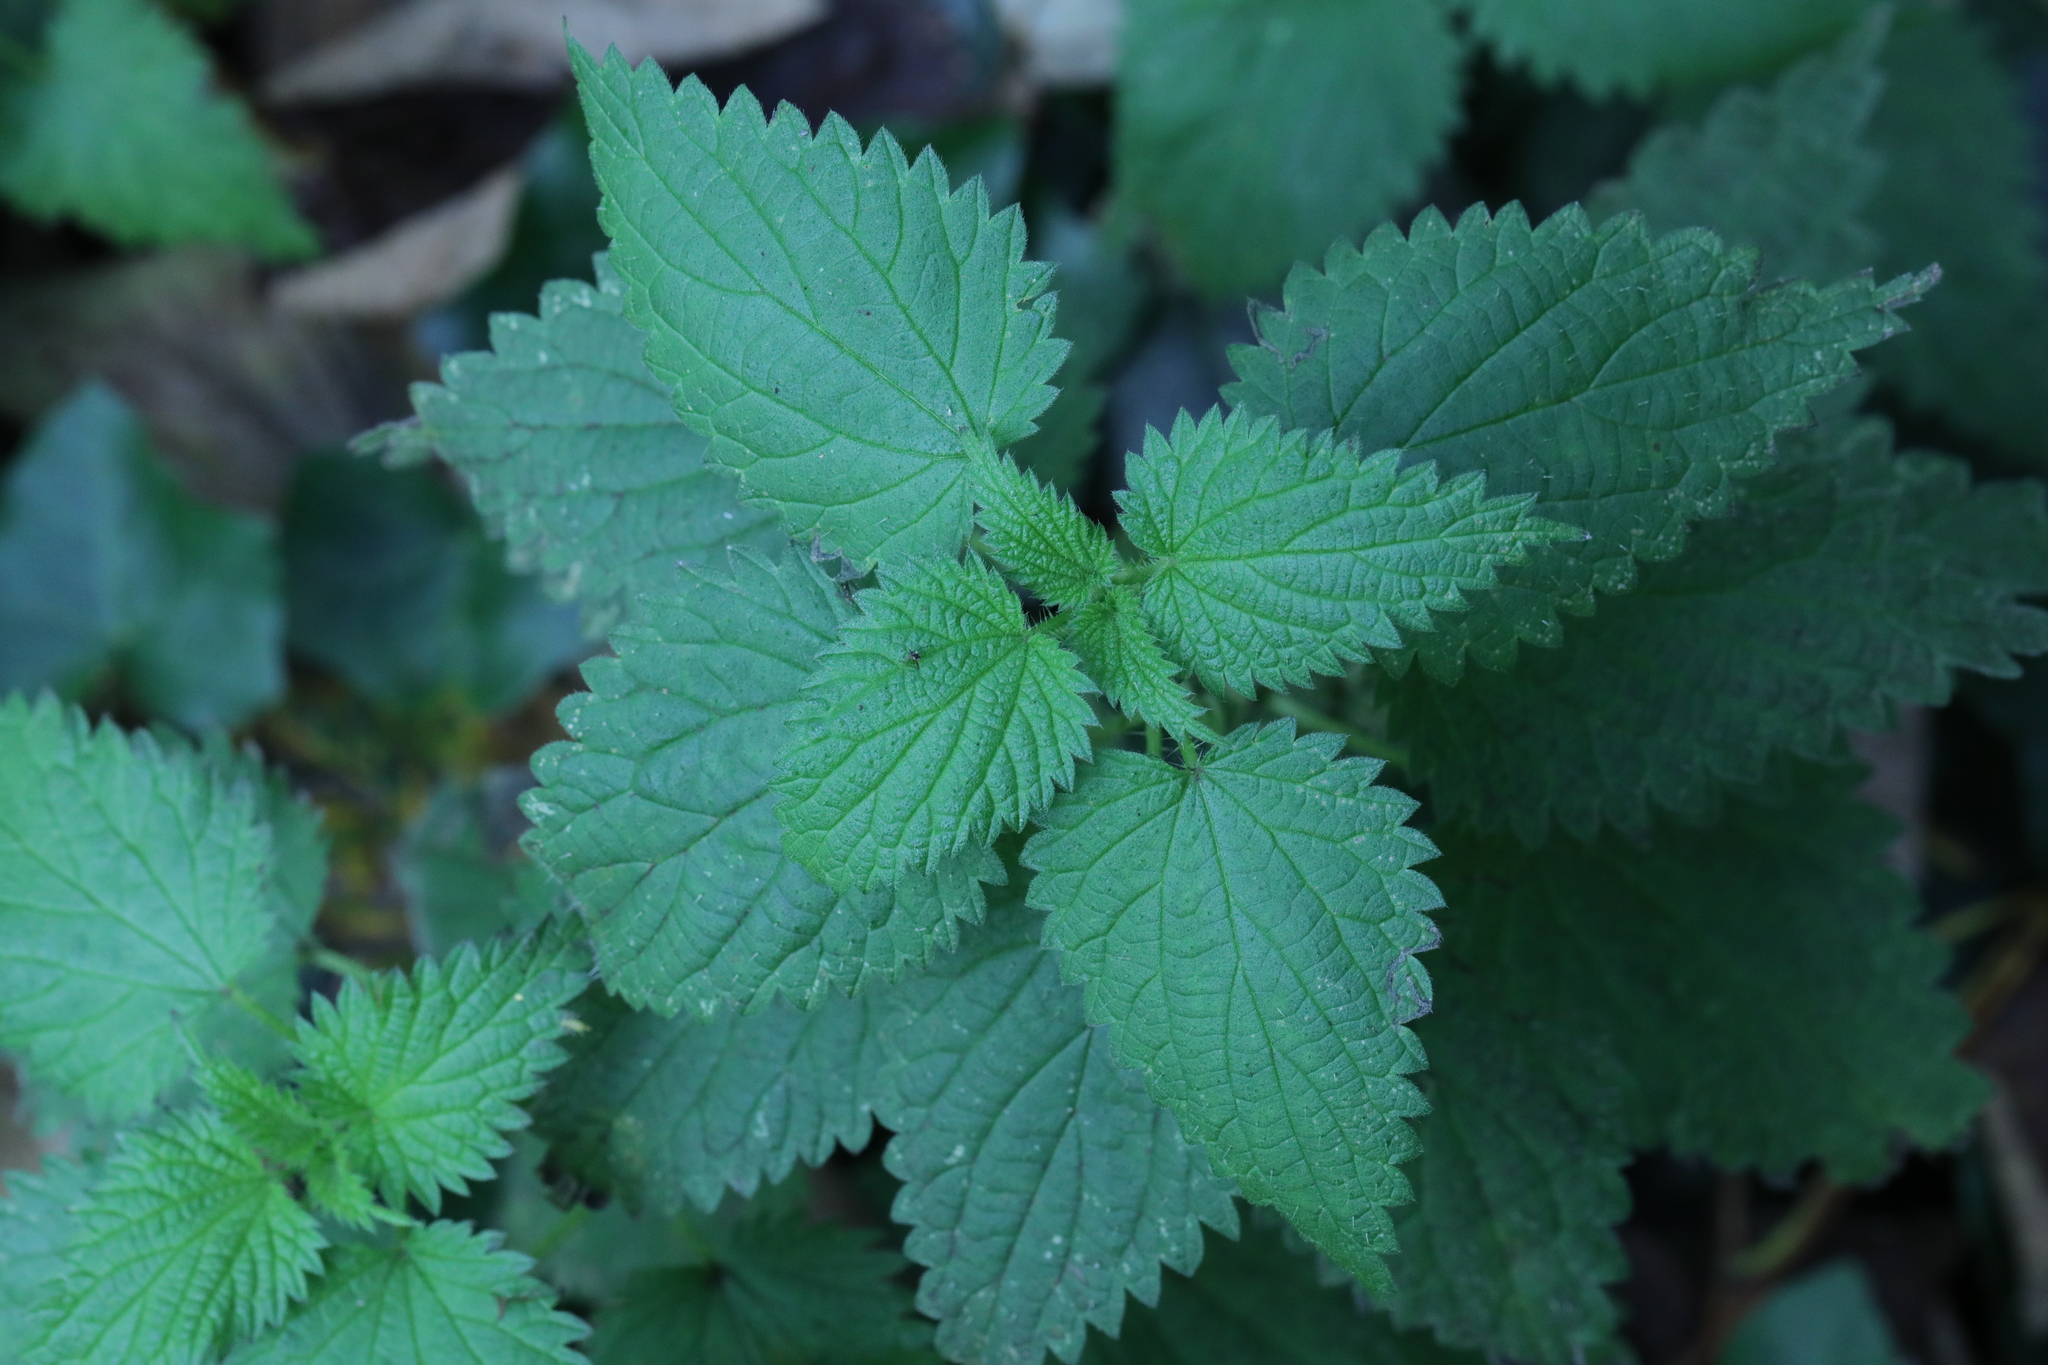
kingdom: Plantae
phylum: Tracheophyta
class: Magnoliopsida
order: Rosales
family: Urticaceae
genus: Urtica
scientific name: Urtica dioica
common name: Common nettle
